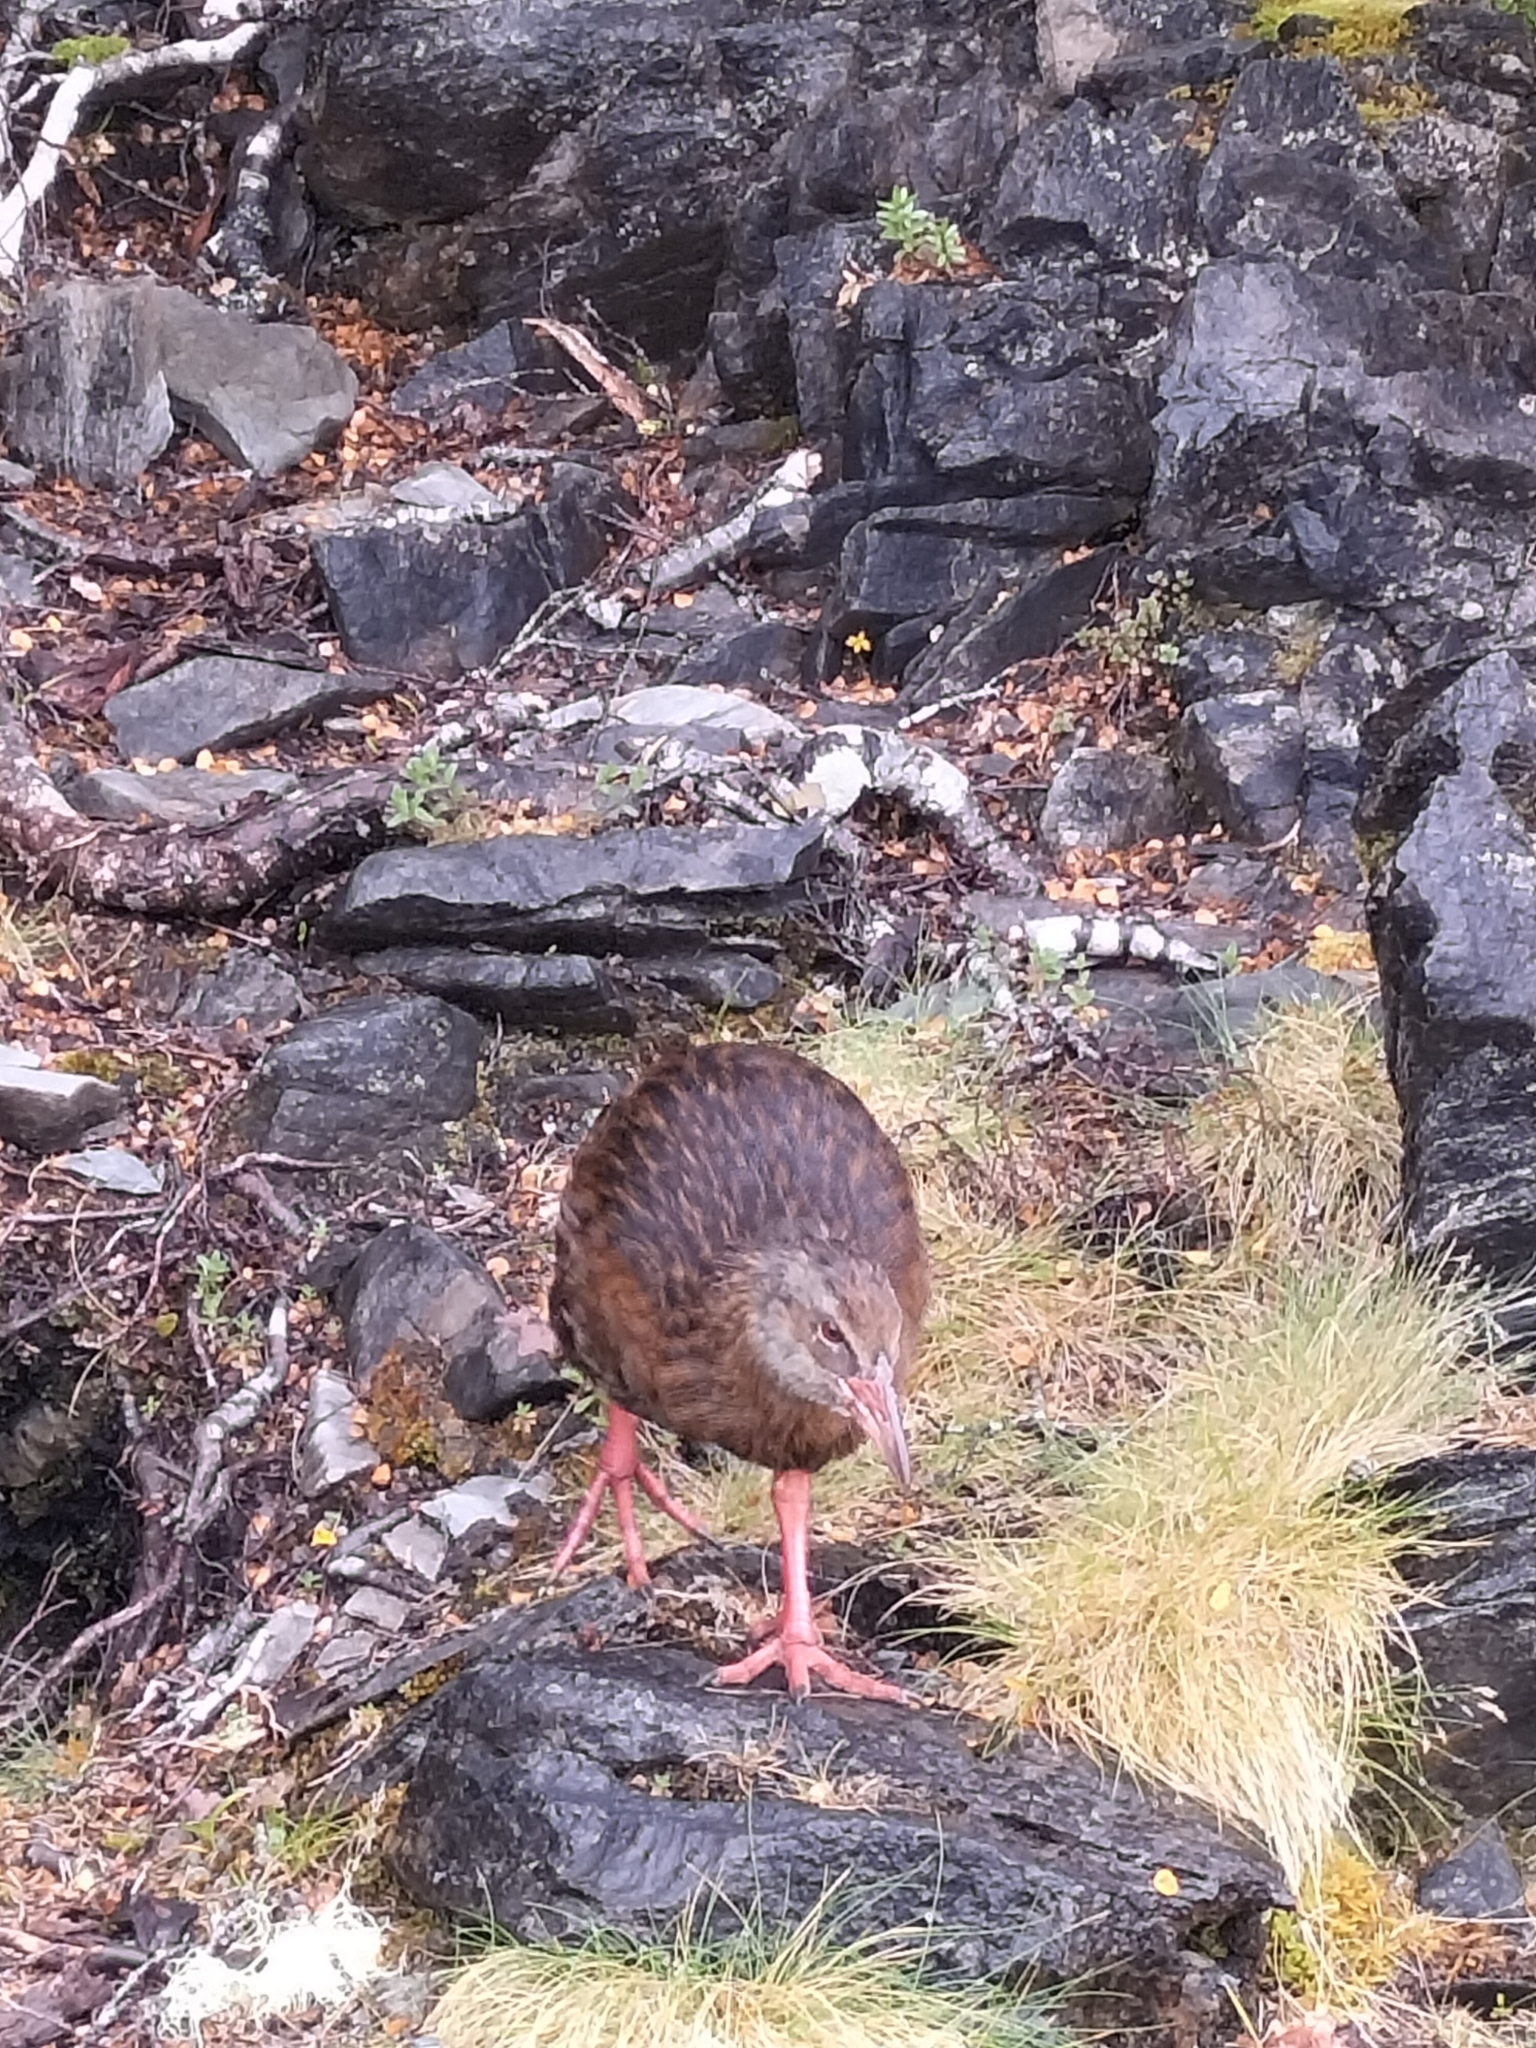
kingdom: Animalia
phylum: Chordata
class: Aves
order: Gruiformes
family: Rallidae
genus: Gallirallus
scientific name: Gallirallus australis
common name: Weka
